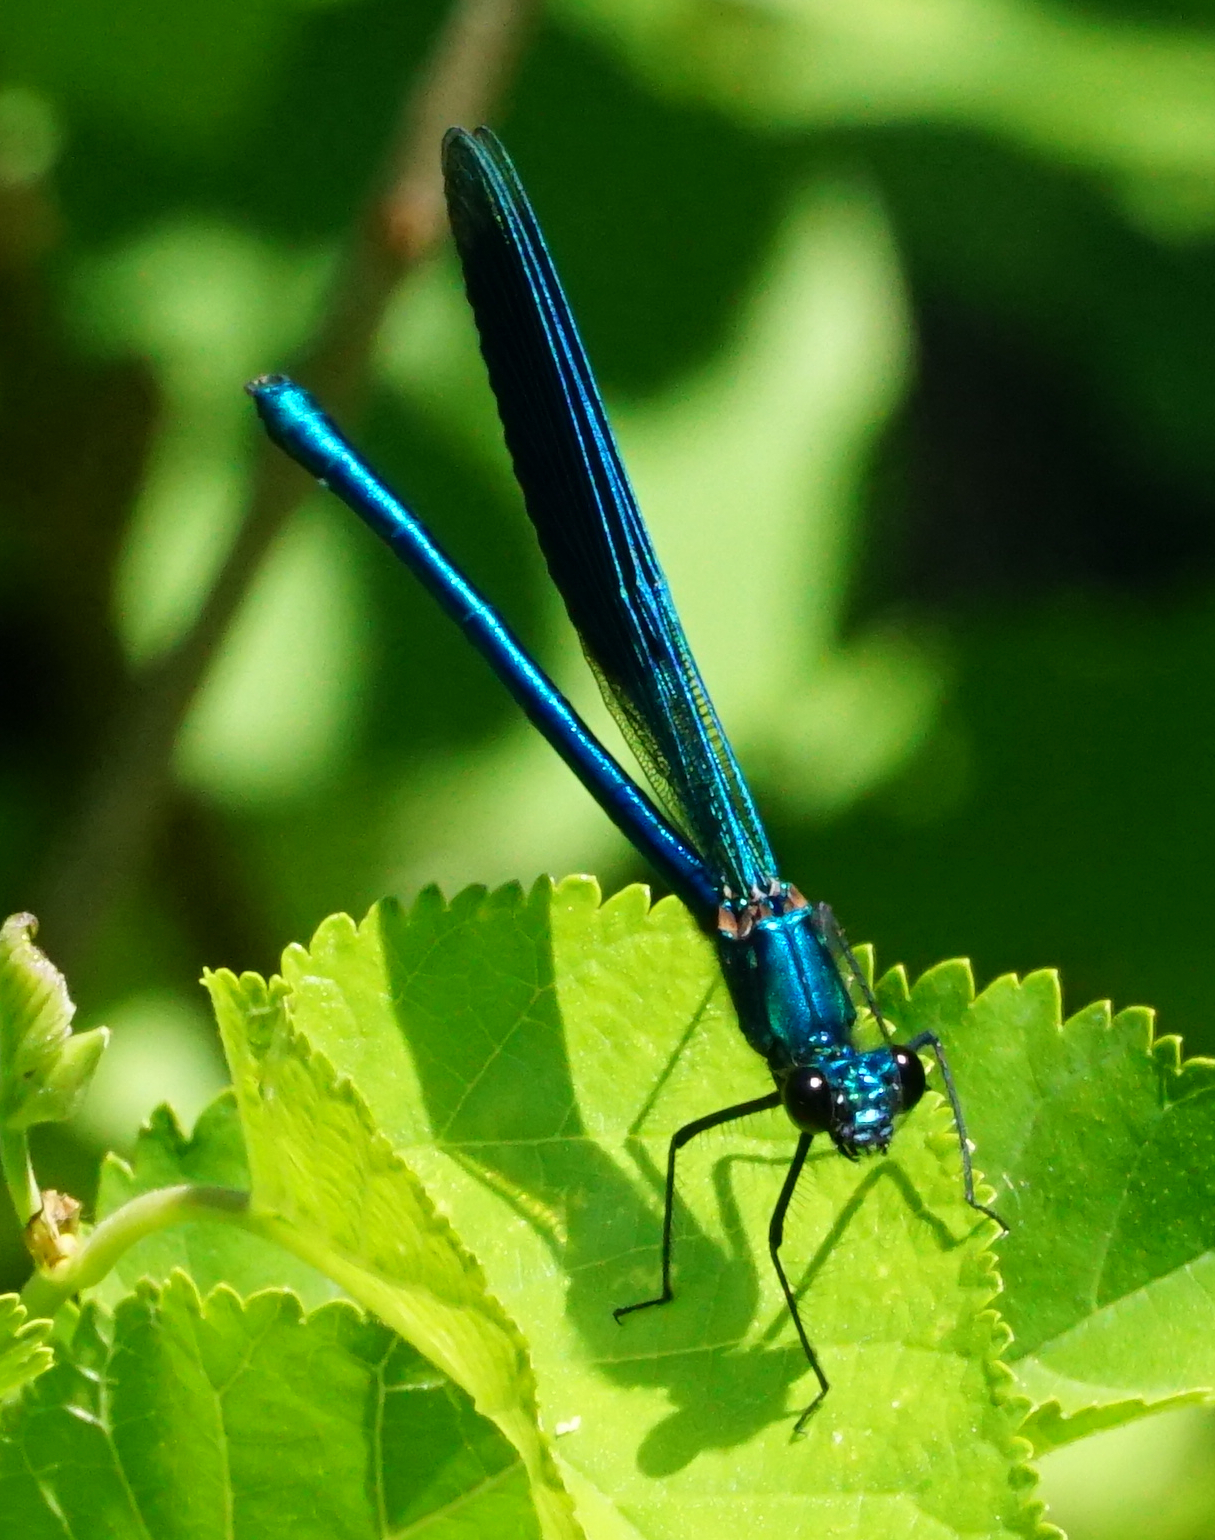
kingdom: Animalia
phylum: Arthropoda
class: Insecta
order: Odonata
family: Calopterygidae
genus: Calopteryx
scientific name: Calopteryx splendens
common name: Banded demoiselle
